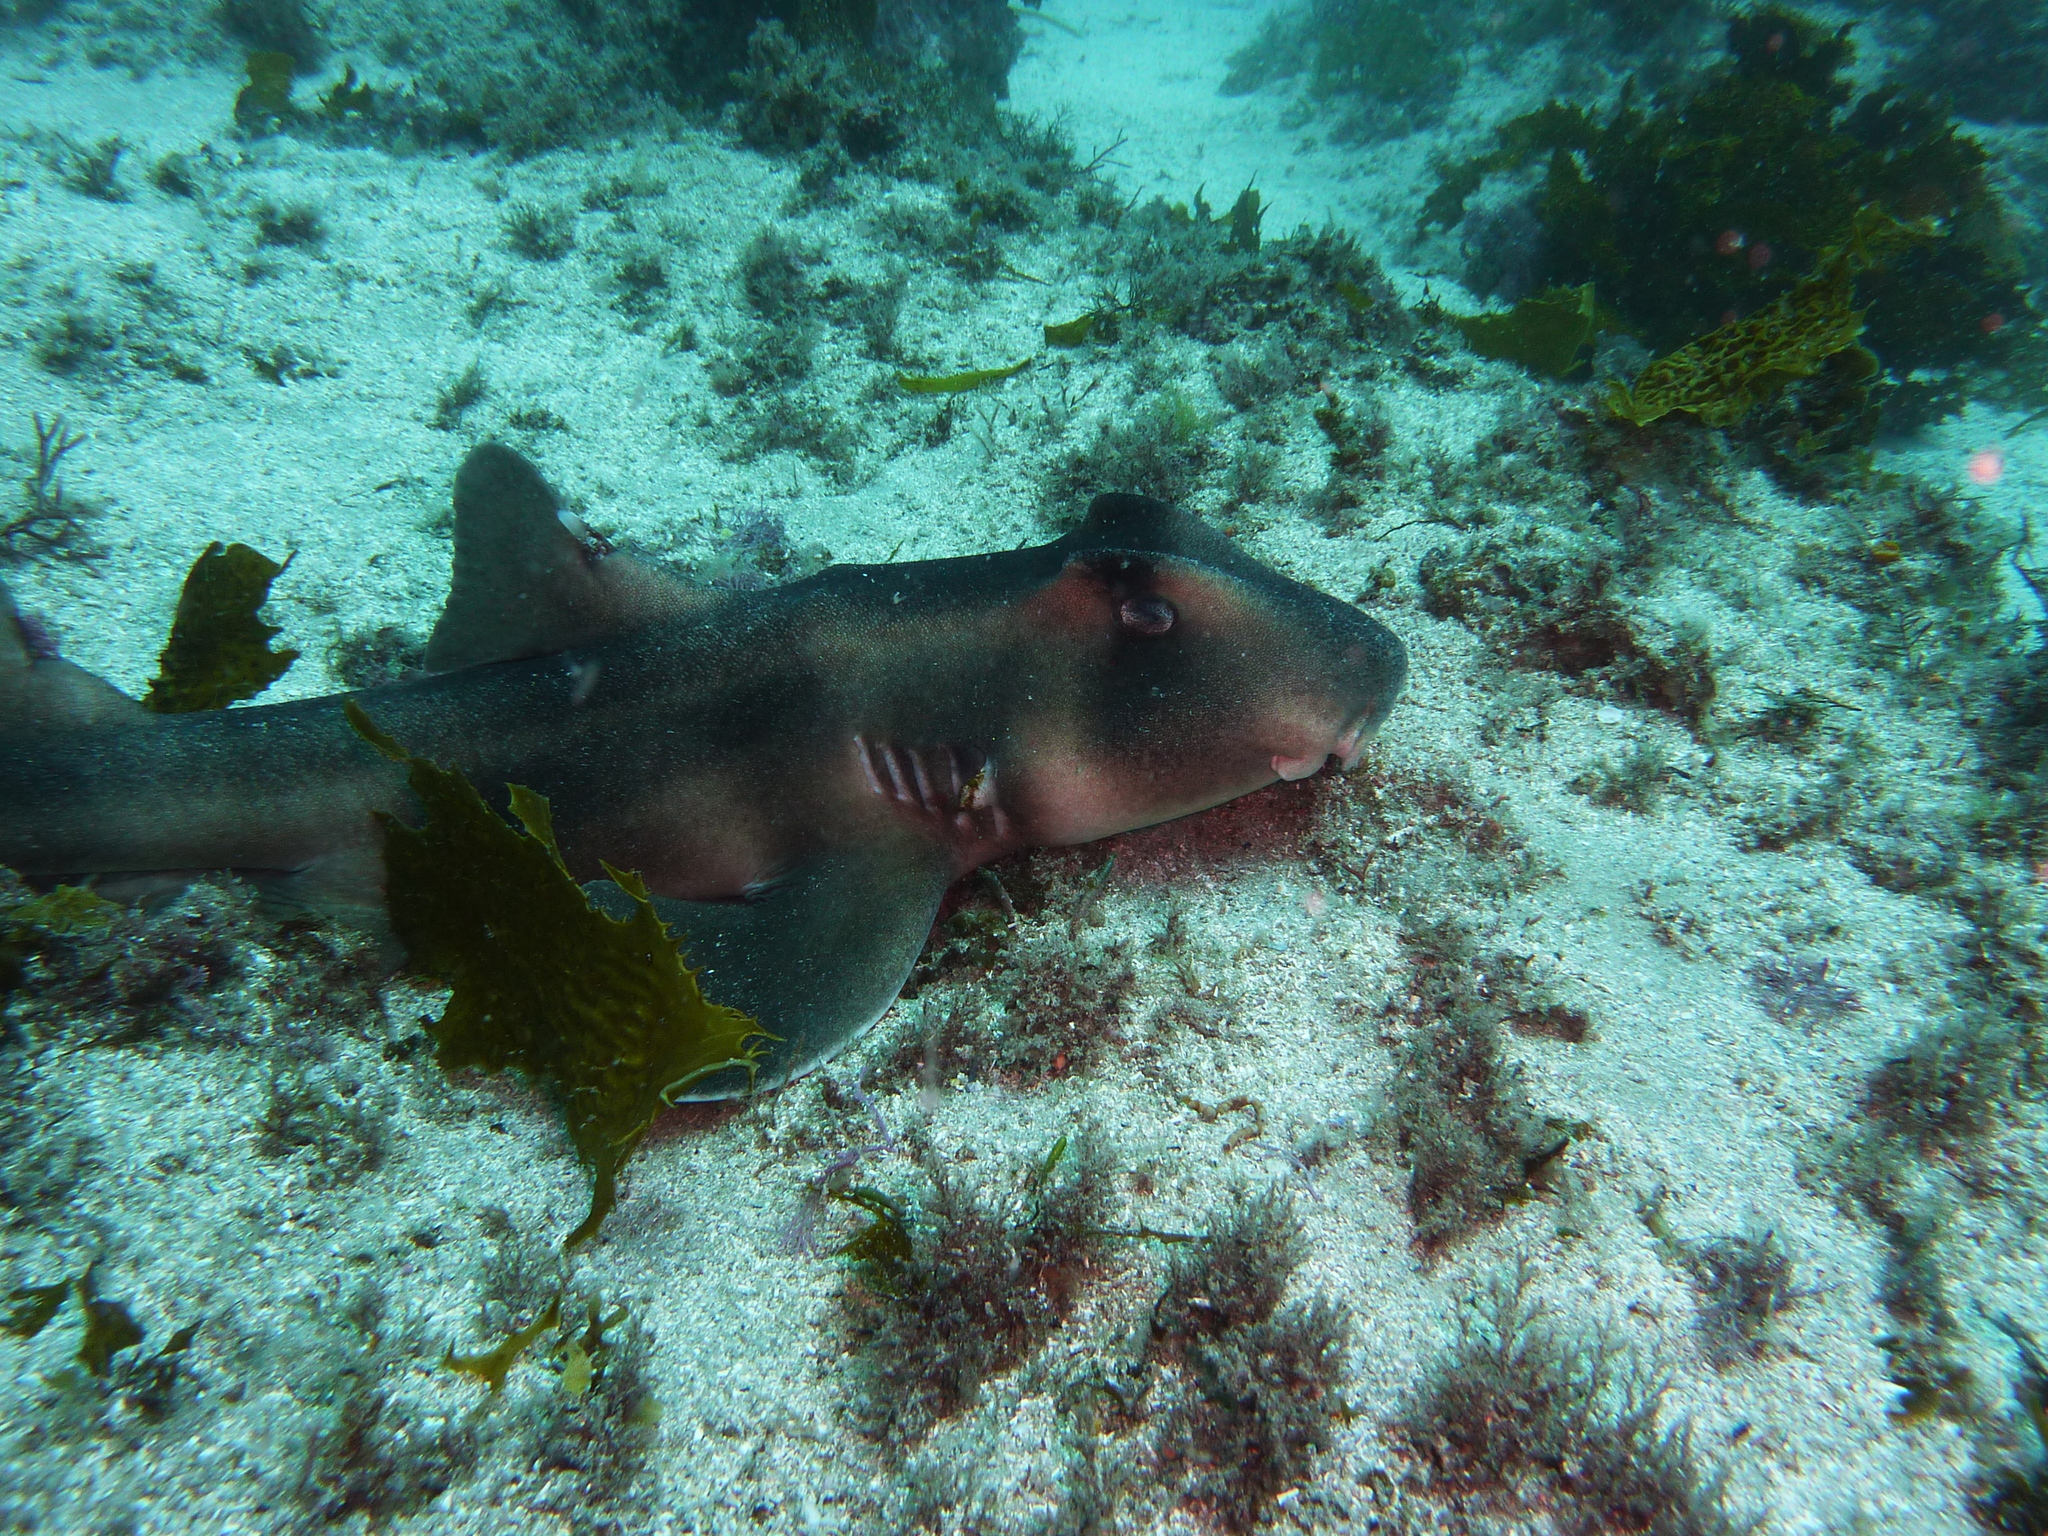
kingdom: Animalia
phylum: Chordata
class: Elasmobranchii
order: Heterodontiformes
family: Heterodontidae
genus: Heterodontus
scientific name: Heterodontus galeatus
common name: Crested bullhead shark
